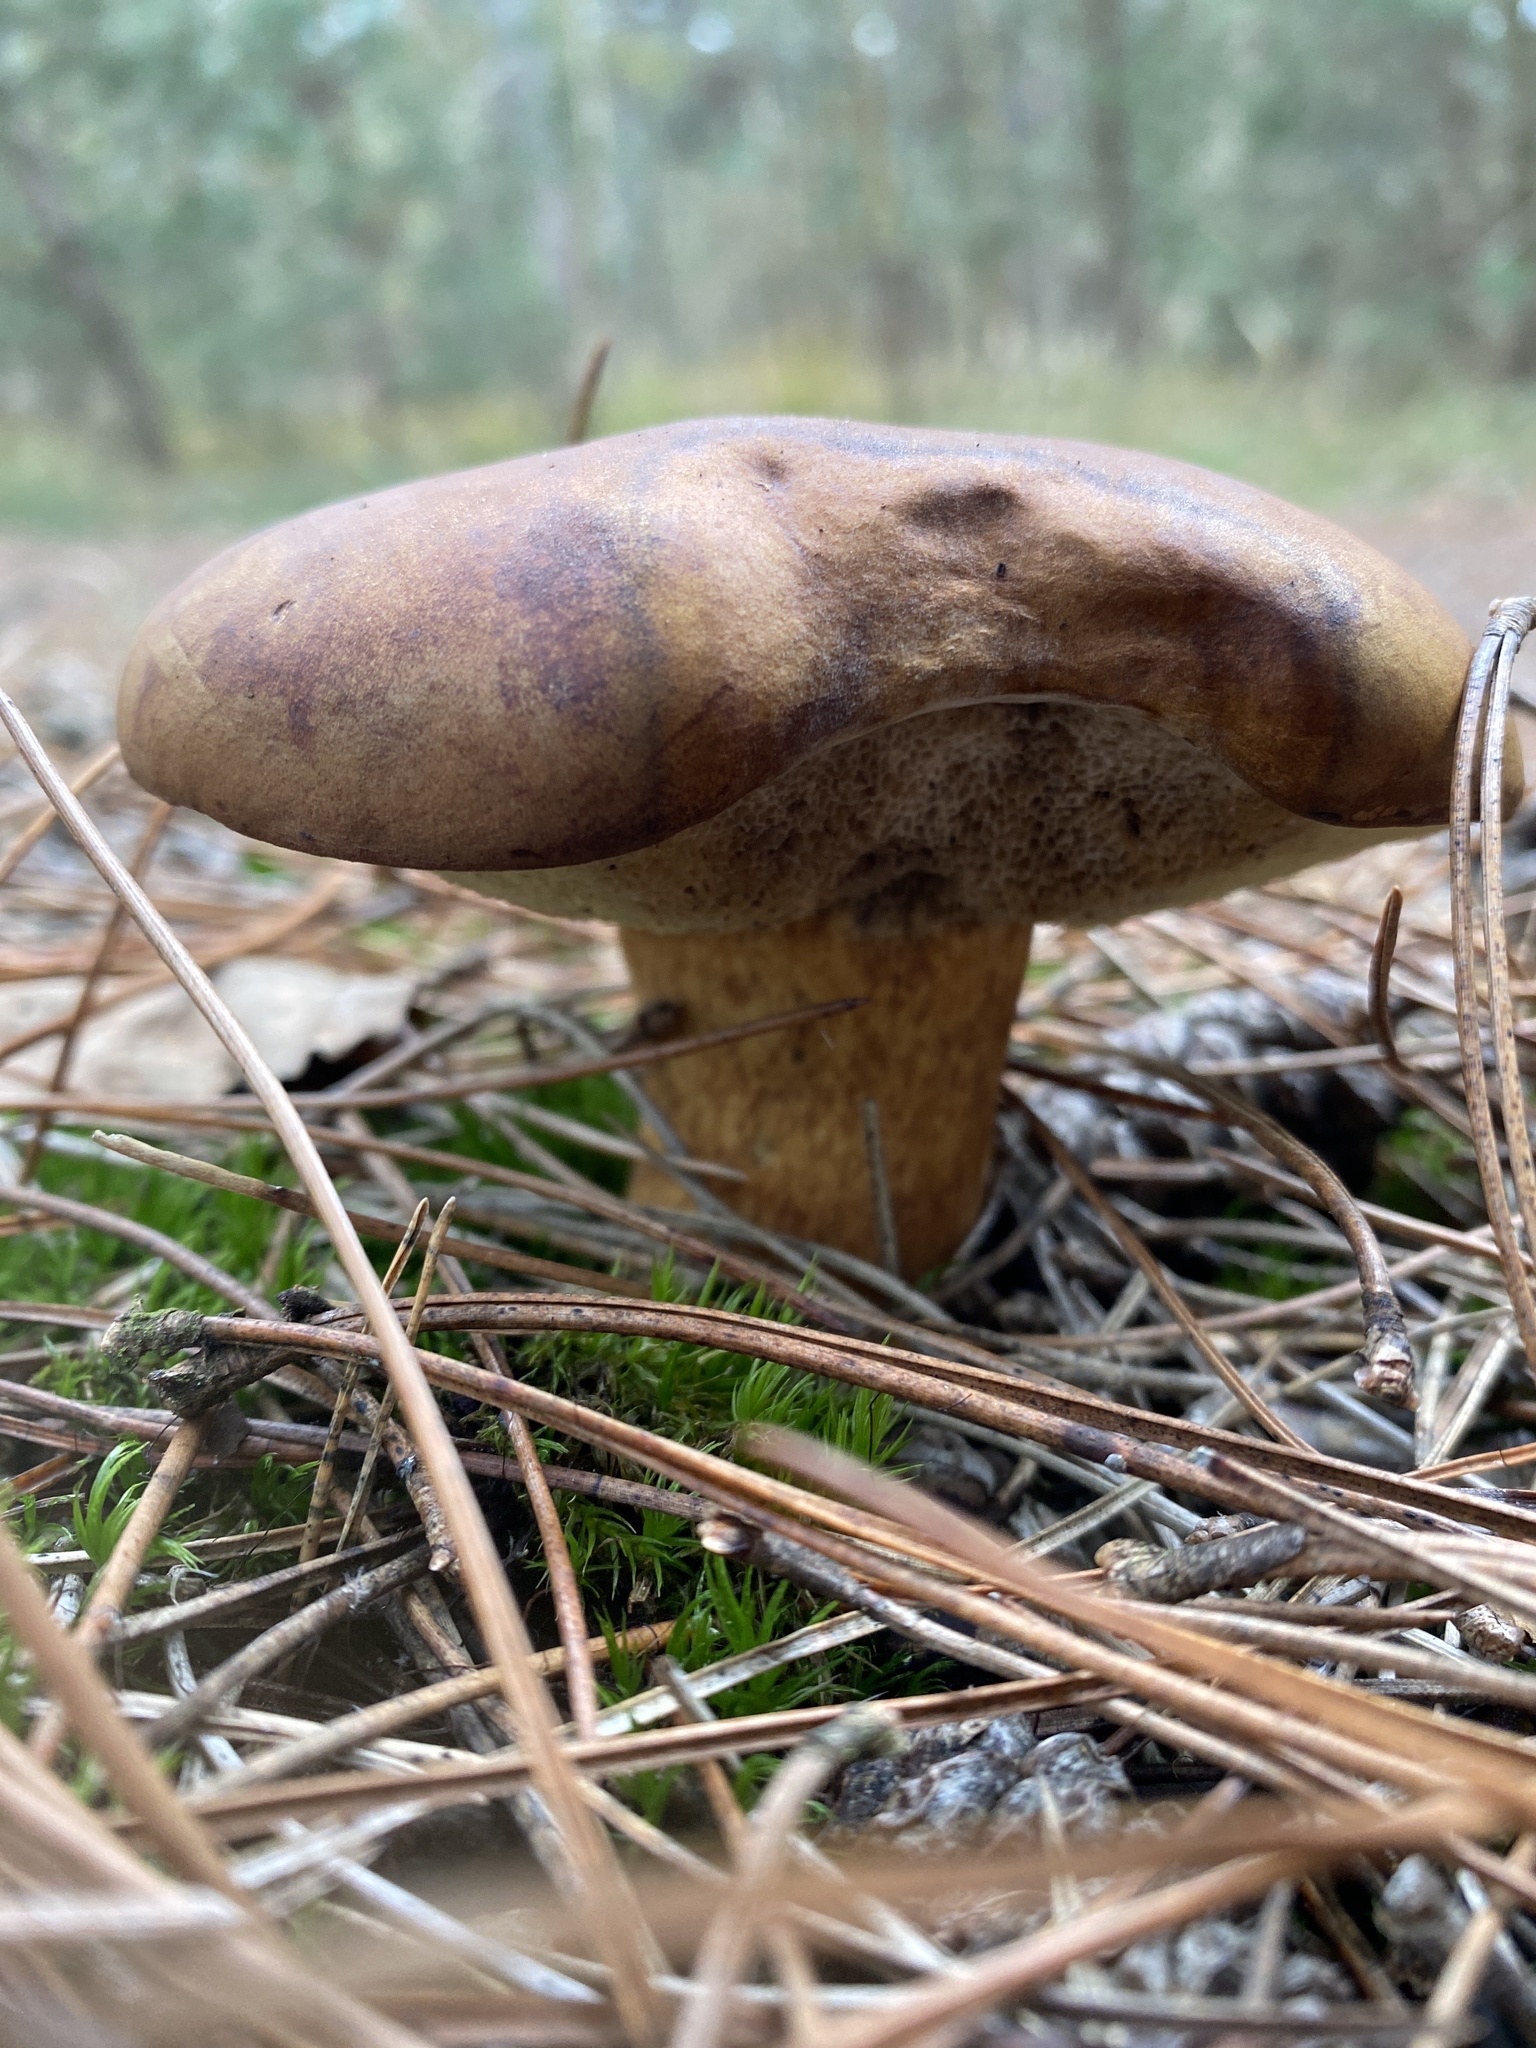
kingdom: Fungi
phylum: Basidiomycota
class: Agaricomycetes
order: Boletales
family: Boletaceae
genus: Imleria
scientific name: Imleria badia
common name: Bay bolete
